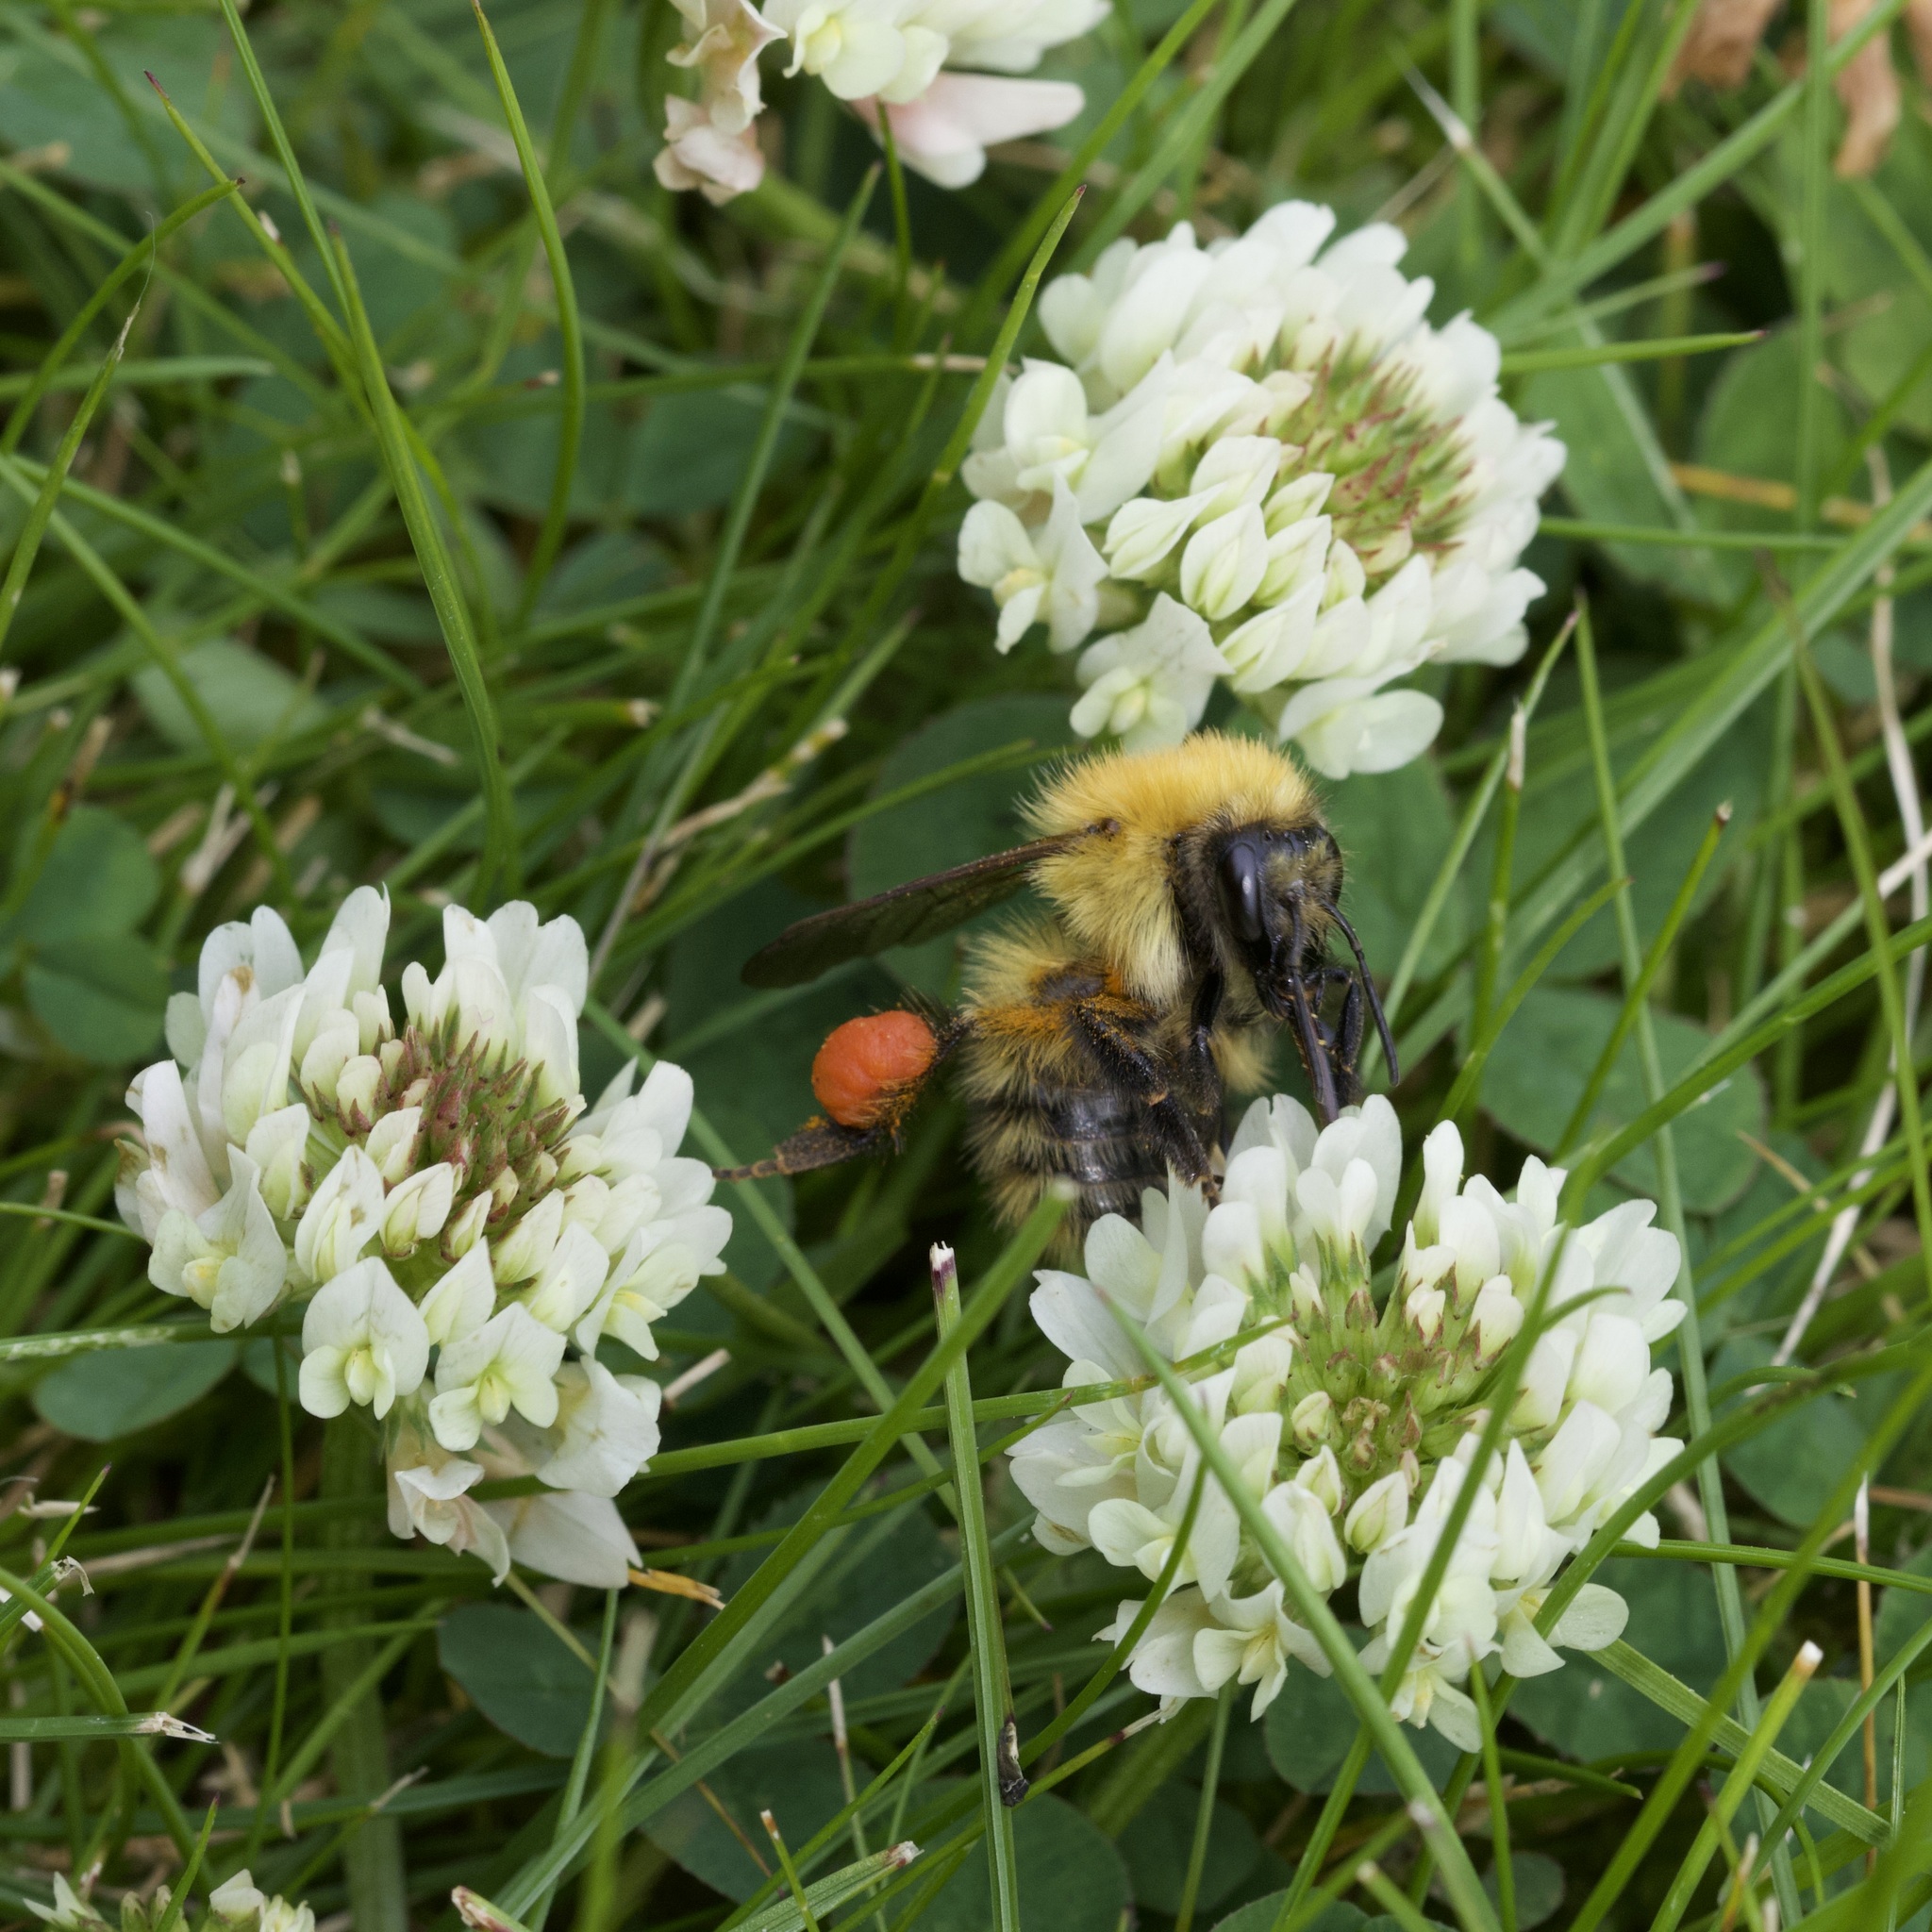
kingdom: Animalia
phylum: Arthropoda
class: Insecta
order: Hymenoptera
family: Apidae
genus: Bombus
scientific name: Bombus pascuorum
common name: Common carder bee
